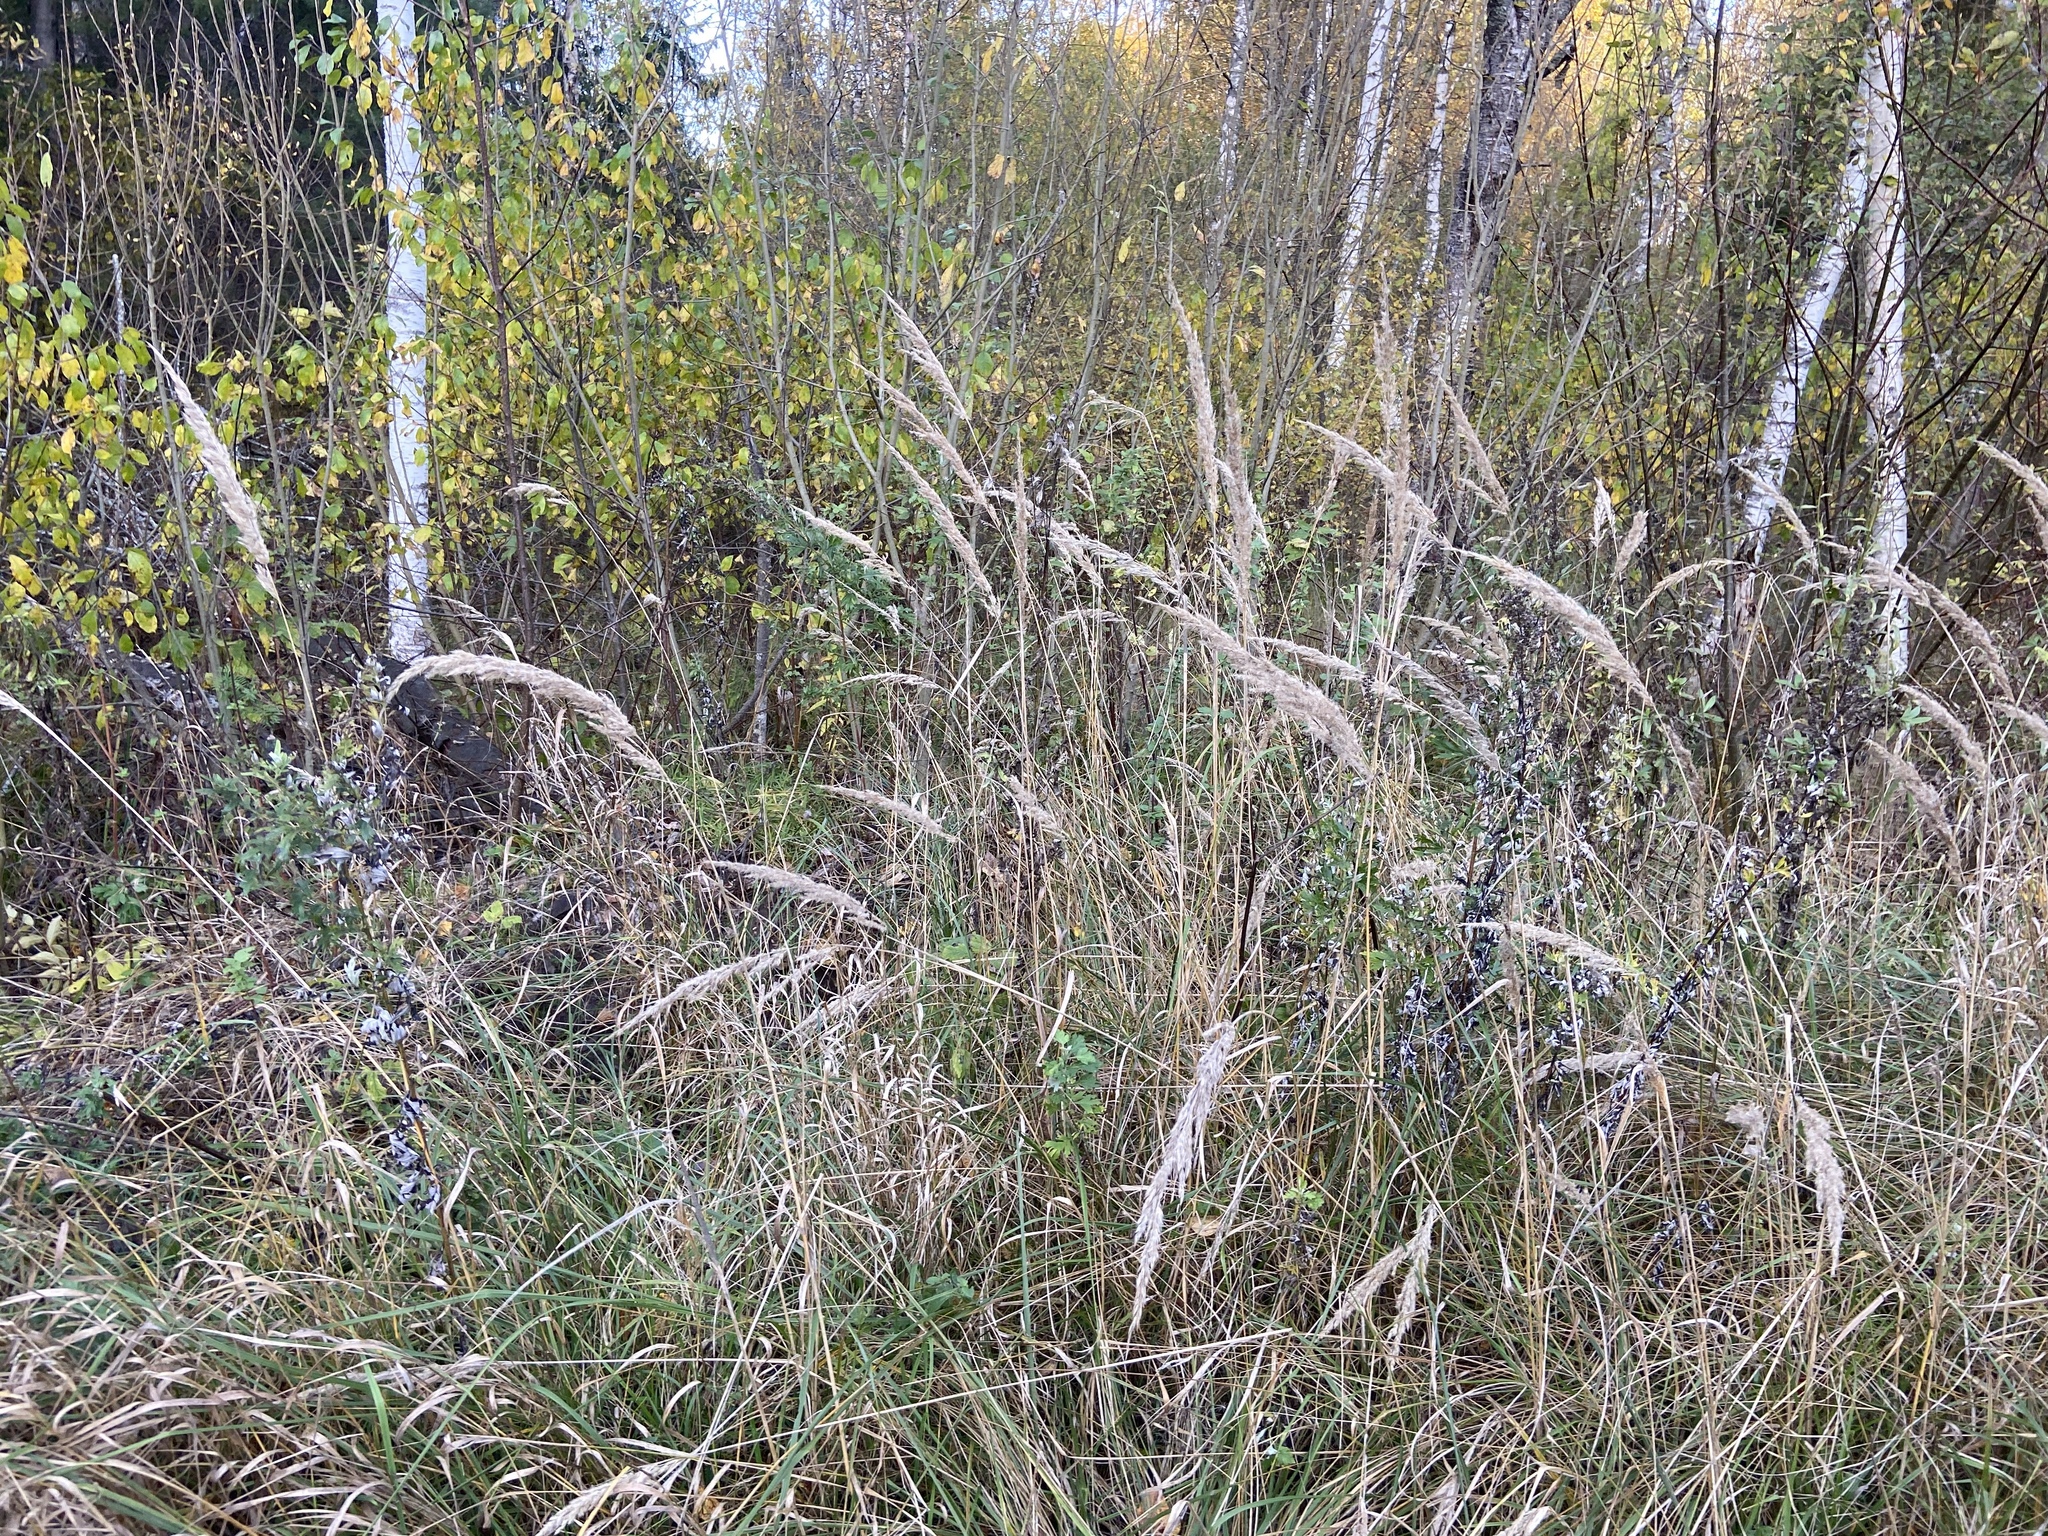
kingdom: Plantae
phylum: Tracheophyta
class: Liliopsida
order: Poales
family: Poaceae
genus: Calamagrostis
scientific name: Calamagrostis epigejos
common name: Wood small-reed
